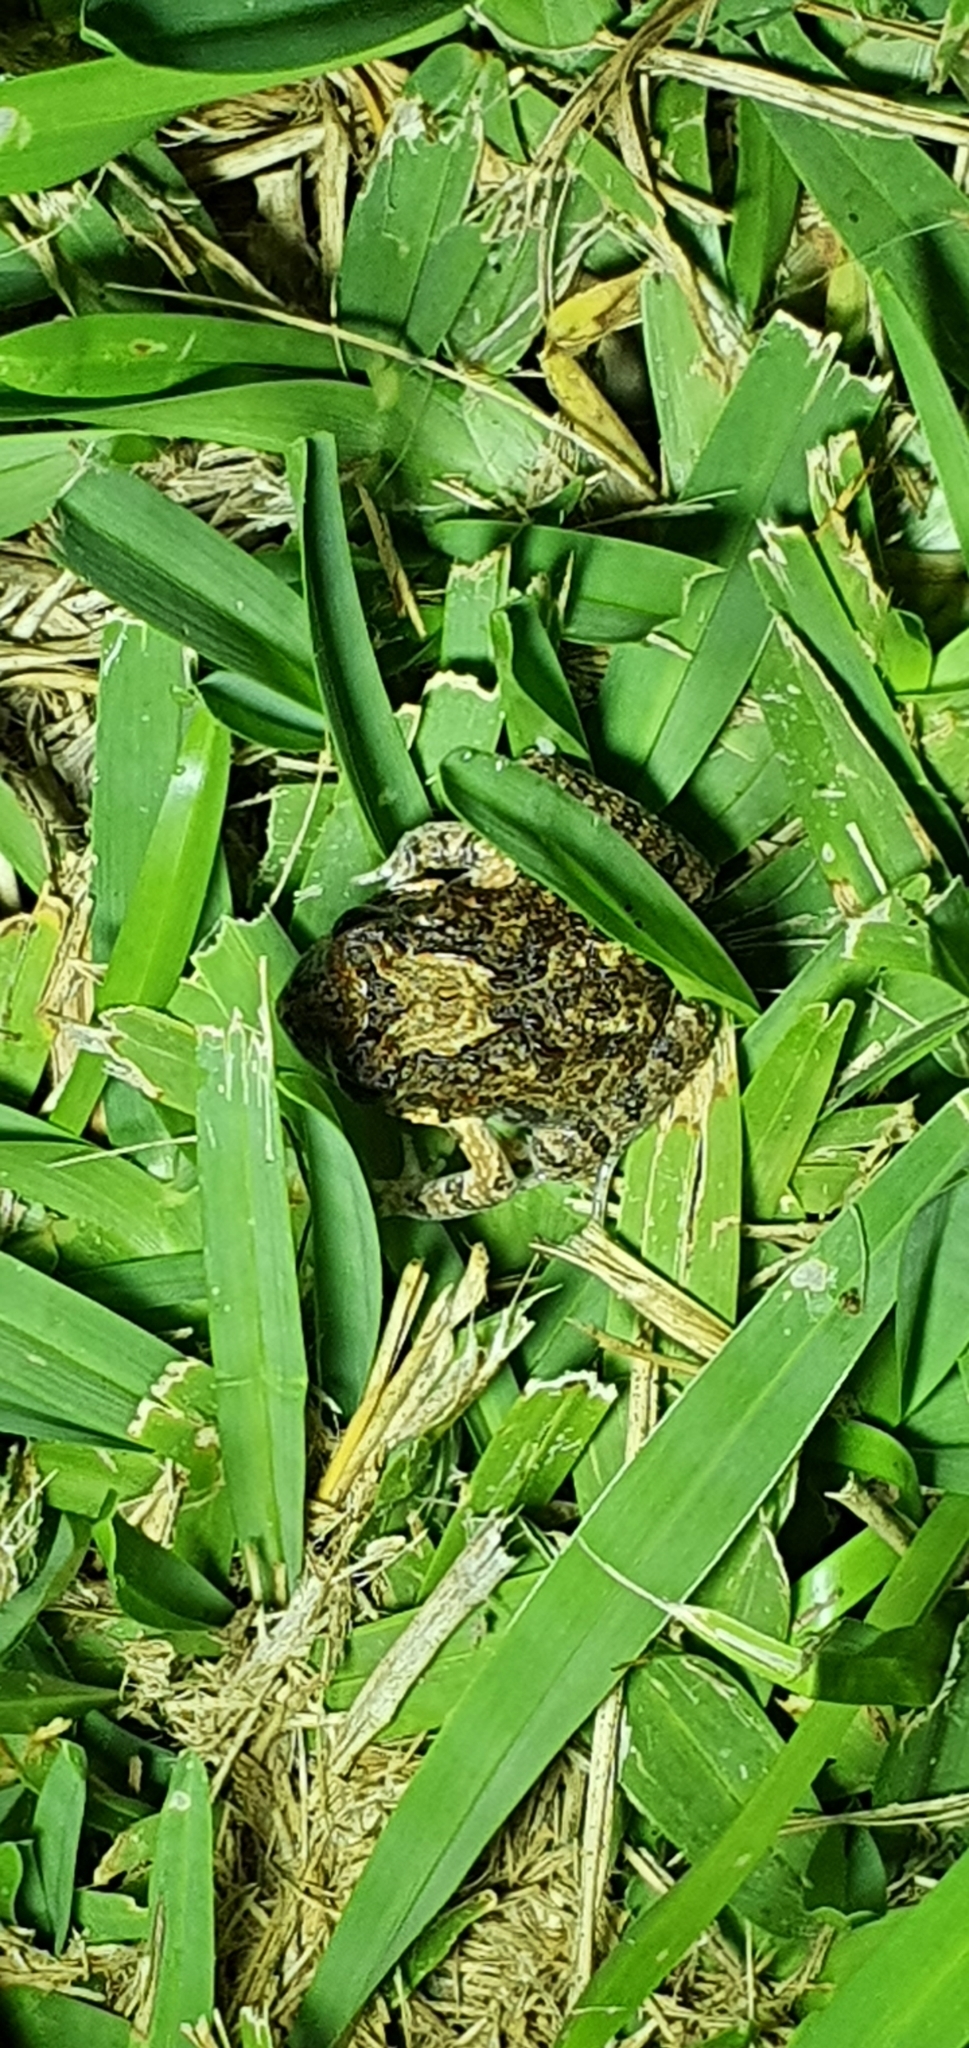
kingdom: Animalia
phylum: Chordata
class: Amphibia
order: Anura
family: Limnodynastidae
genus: Platyplectrum
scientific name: Platyplectrum ornatum
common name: Ornate burrowing frog
